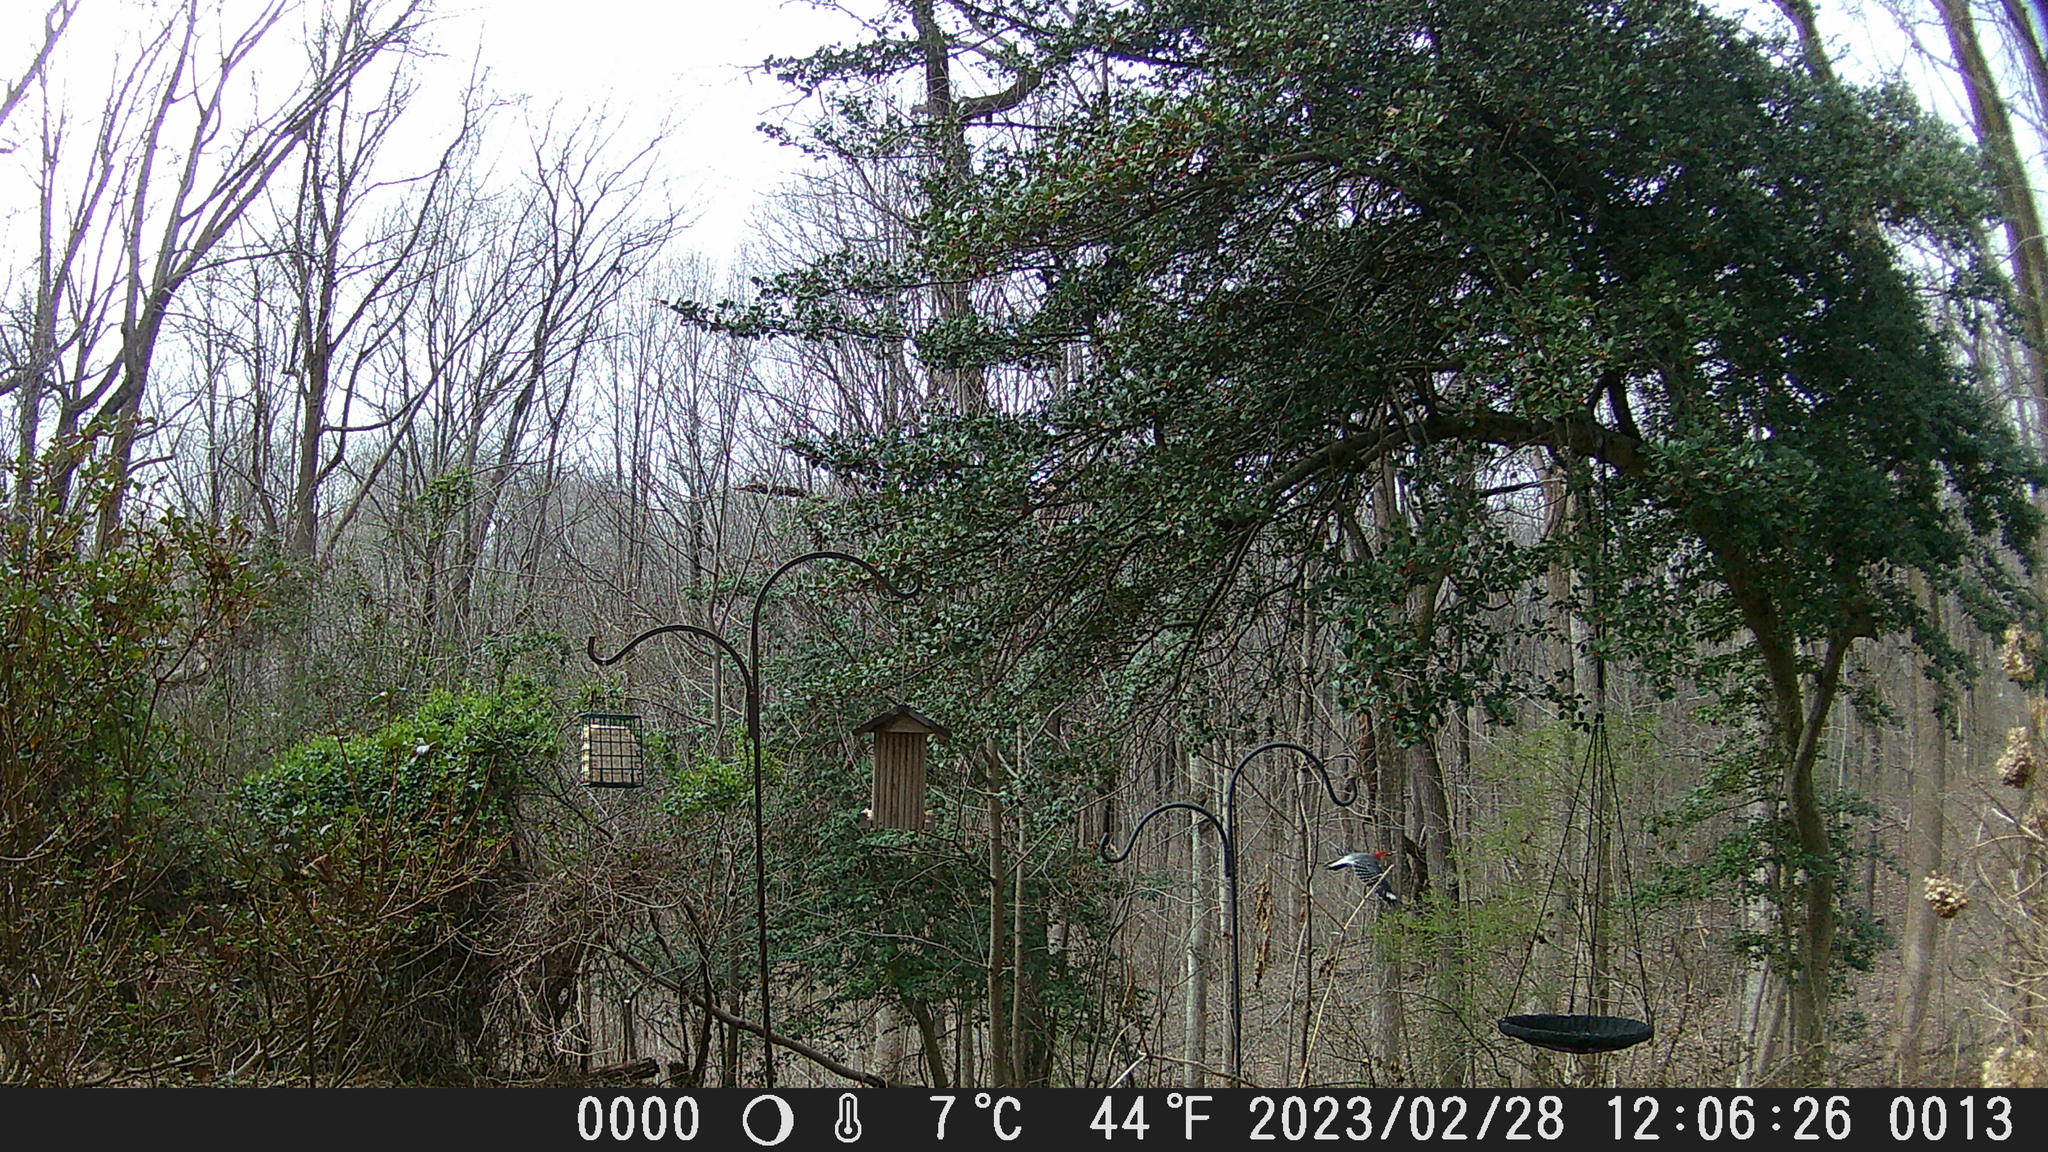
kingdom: Animalia
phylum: Chordata
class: Aves
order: Piciformes
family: Picidae
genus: Melanerpes
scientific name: Melanerpes carolinus
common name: Red-bellied woodpecker
